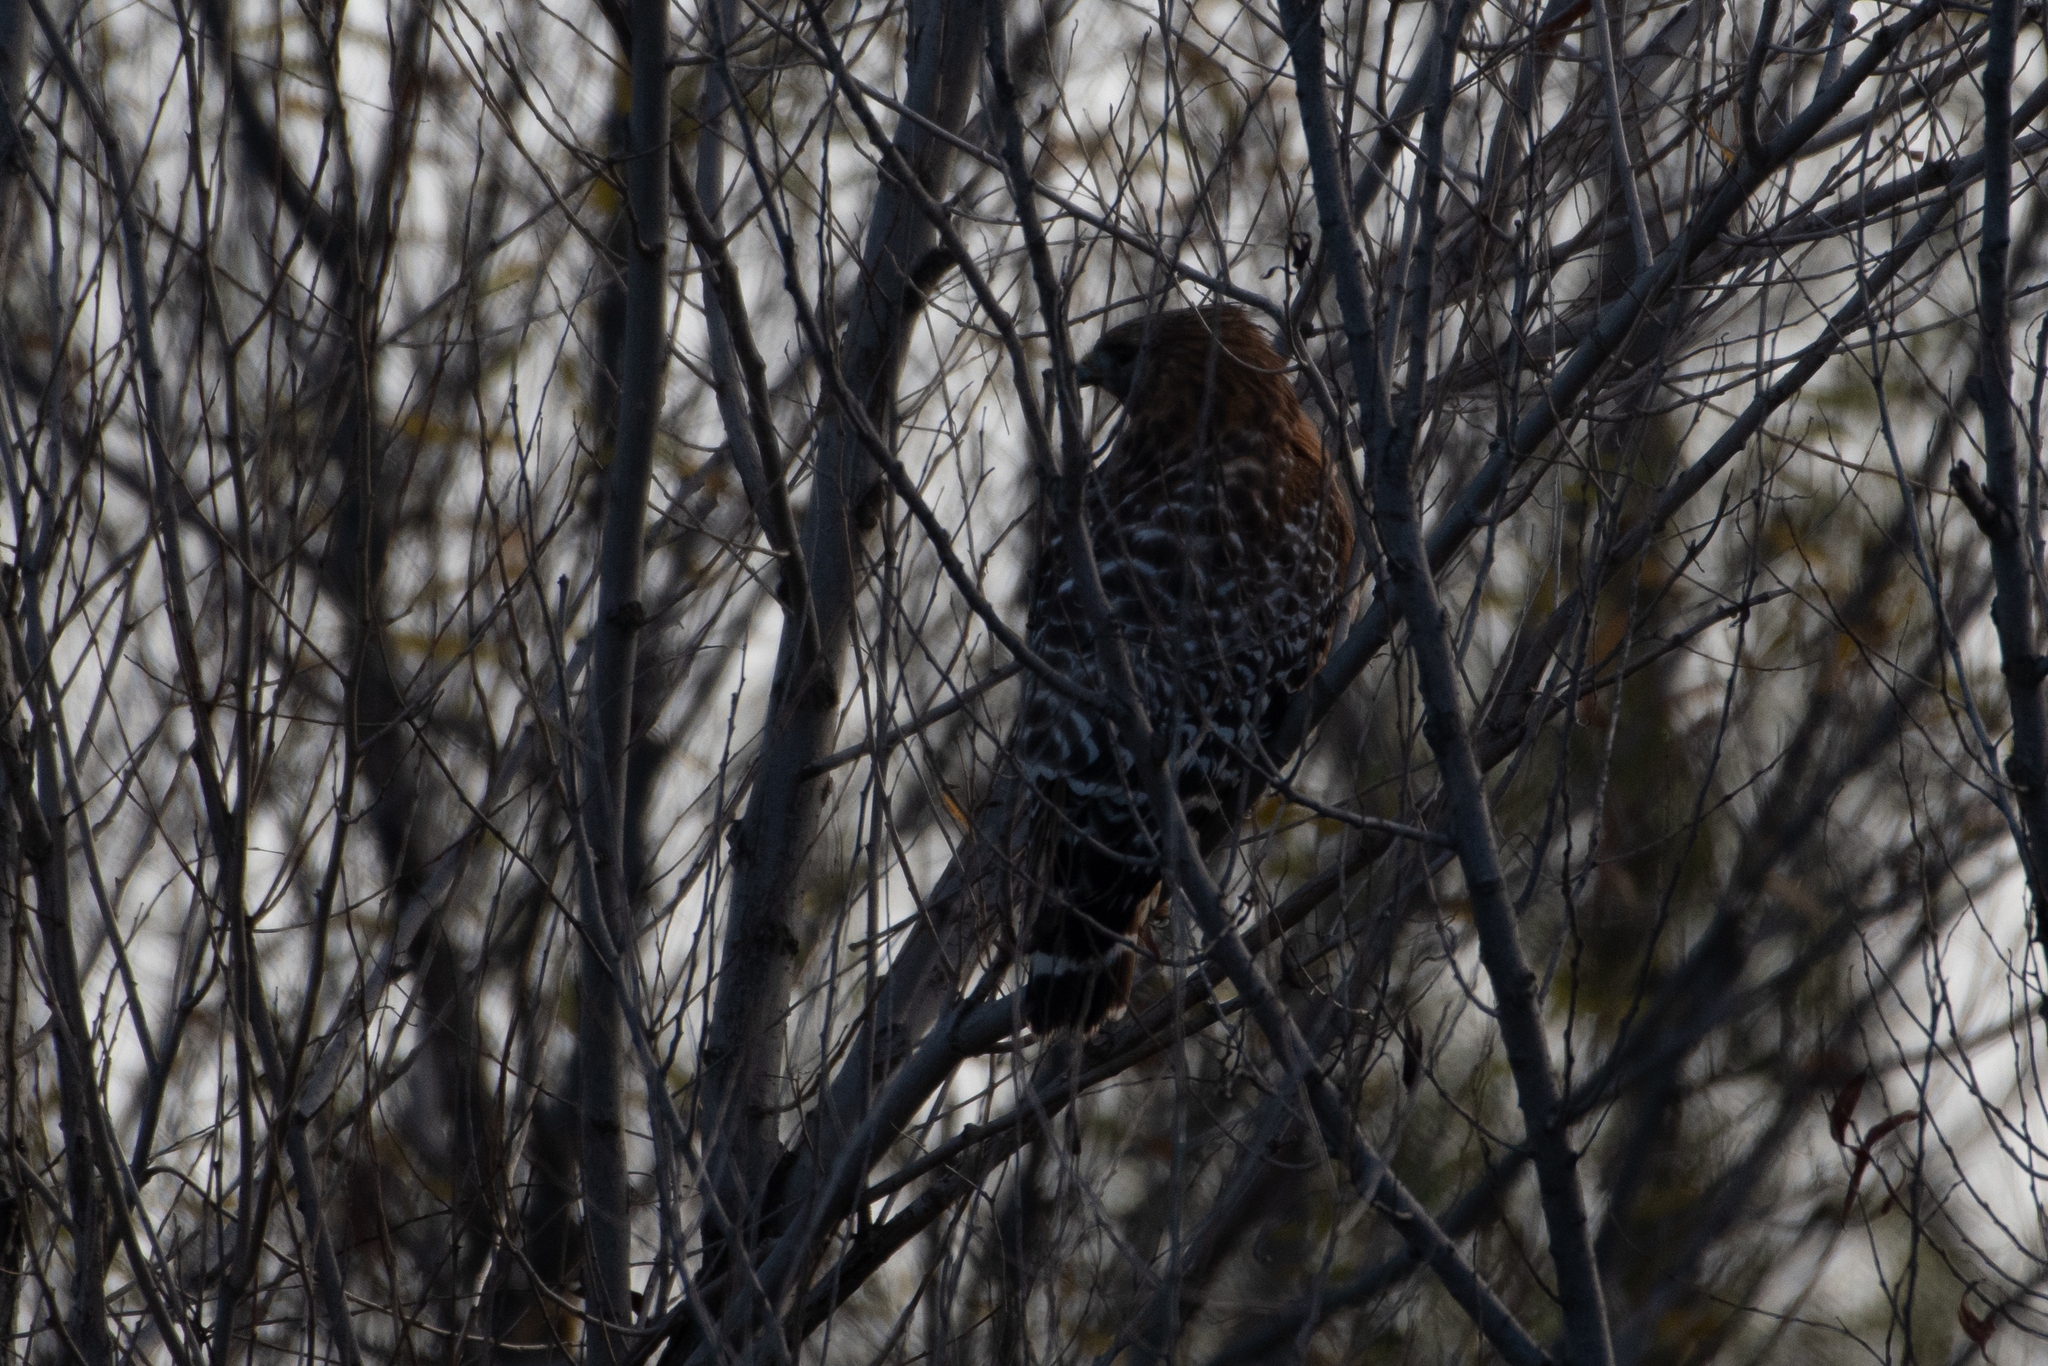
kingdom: Animalia
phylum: Chordata
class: Aves
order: Accipitriformes
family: Accipitridae
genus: Buteo
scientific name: Buteo lineatus
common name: Red-shouldered hawk
